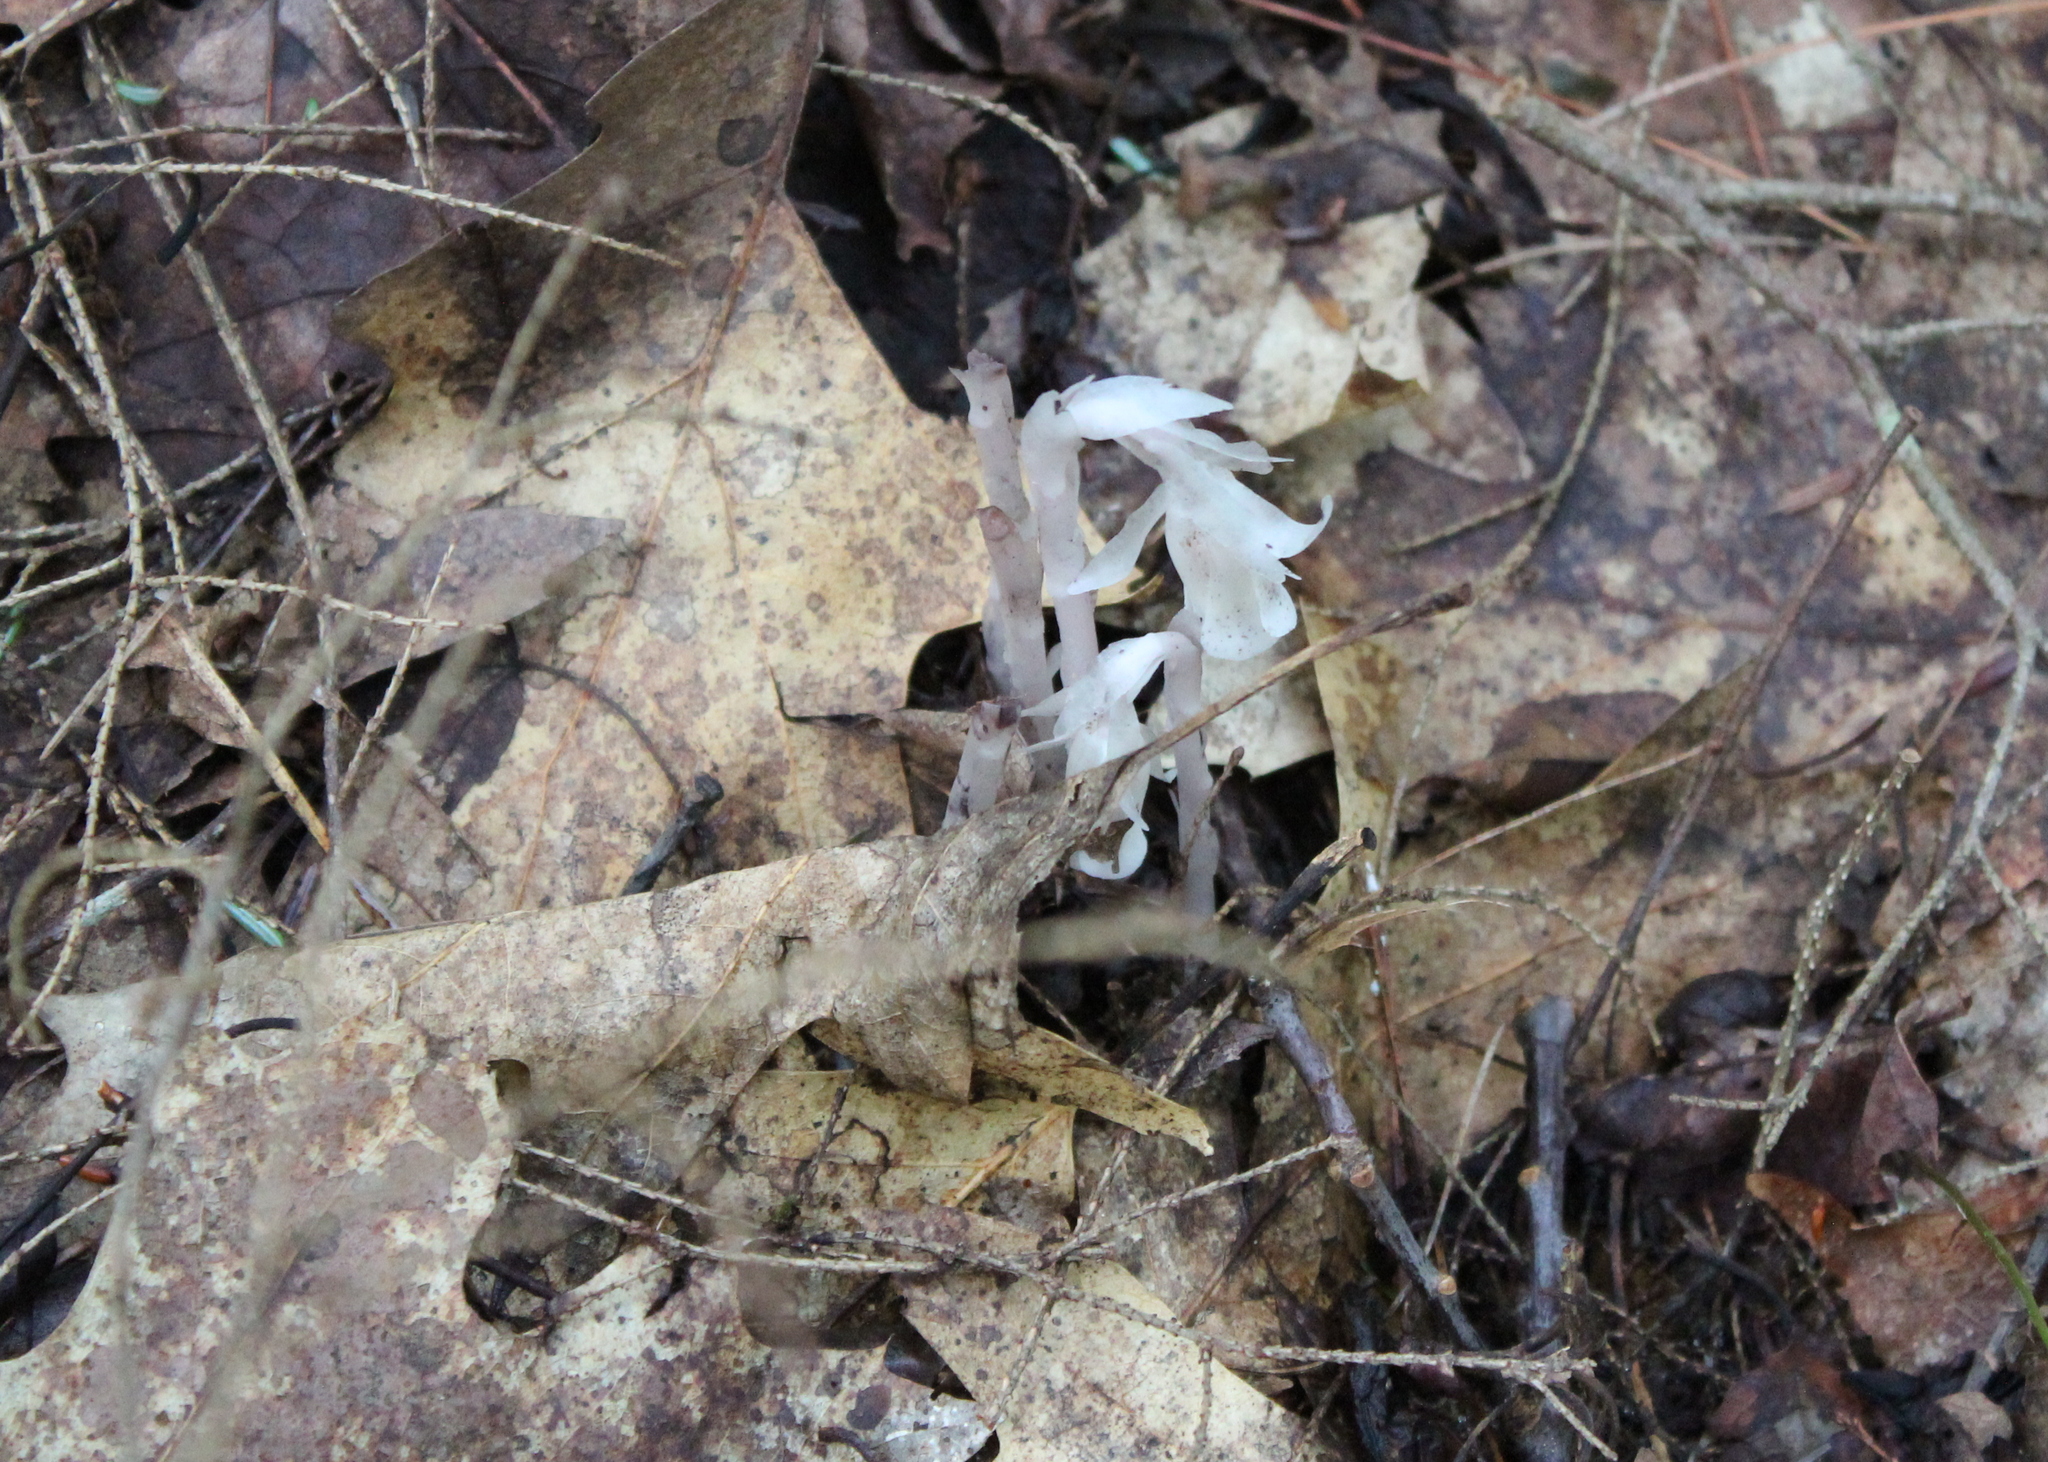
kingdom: Plantae
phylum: Tracheophyta
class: Magnoliopsida
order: Ericales
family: Ericaceae
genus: Monotropa
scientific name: Monotropa uniflora
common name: Convulsion root
